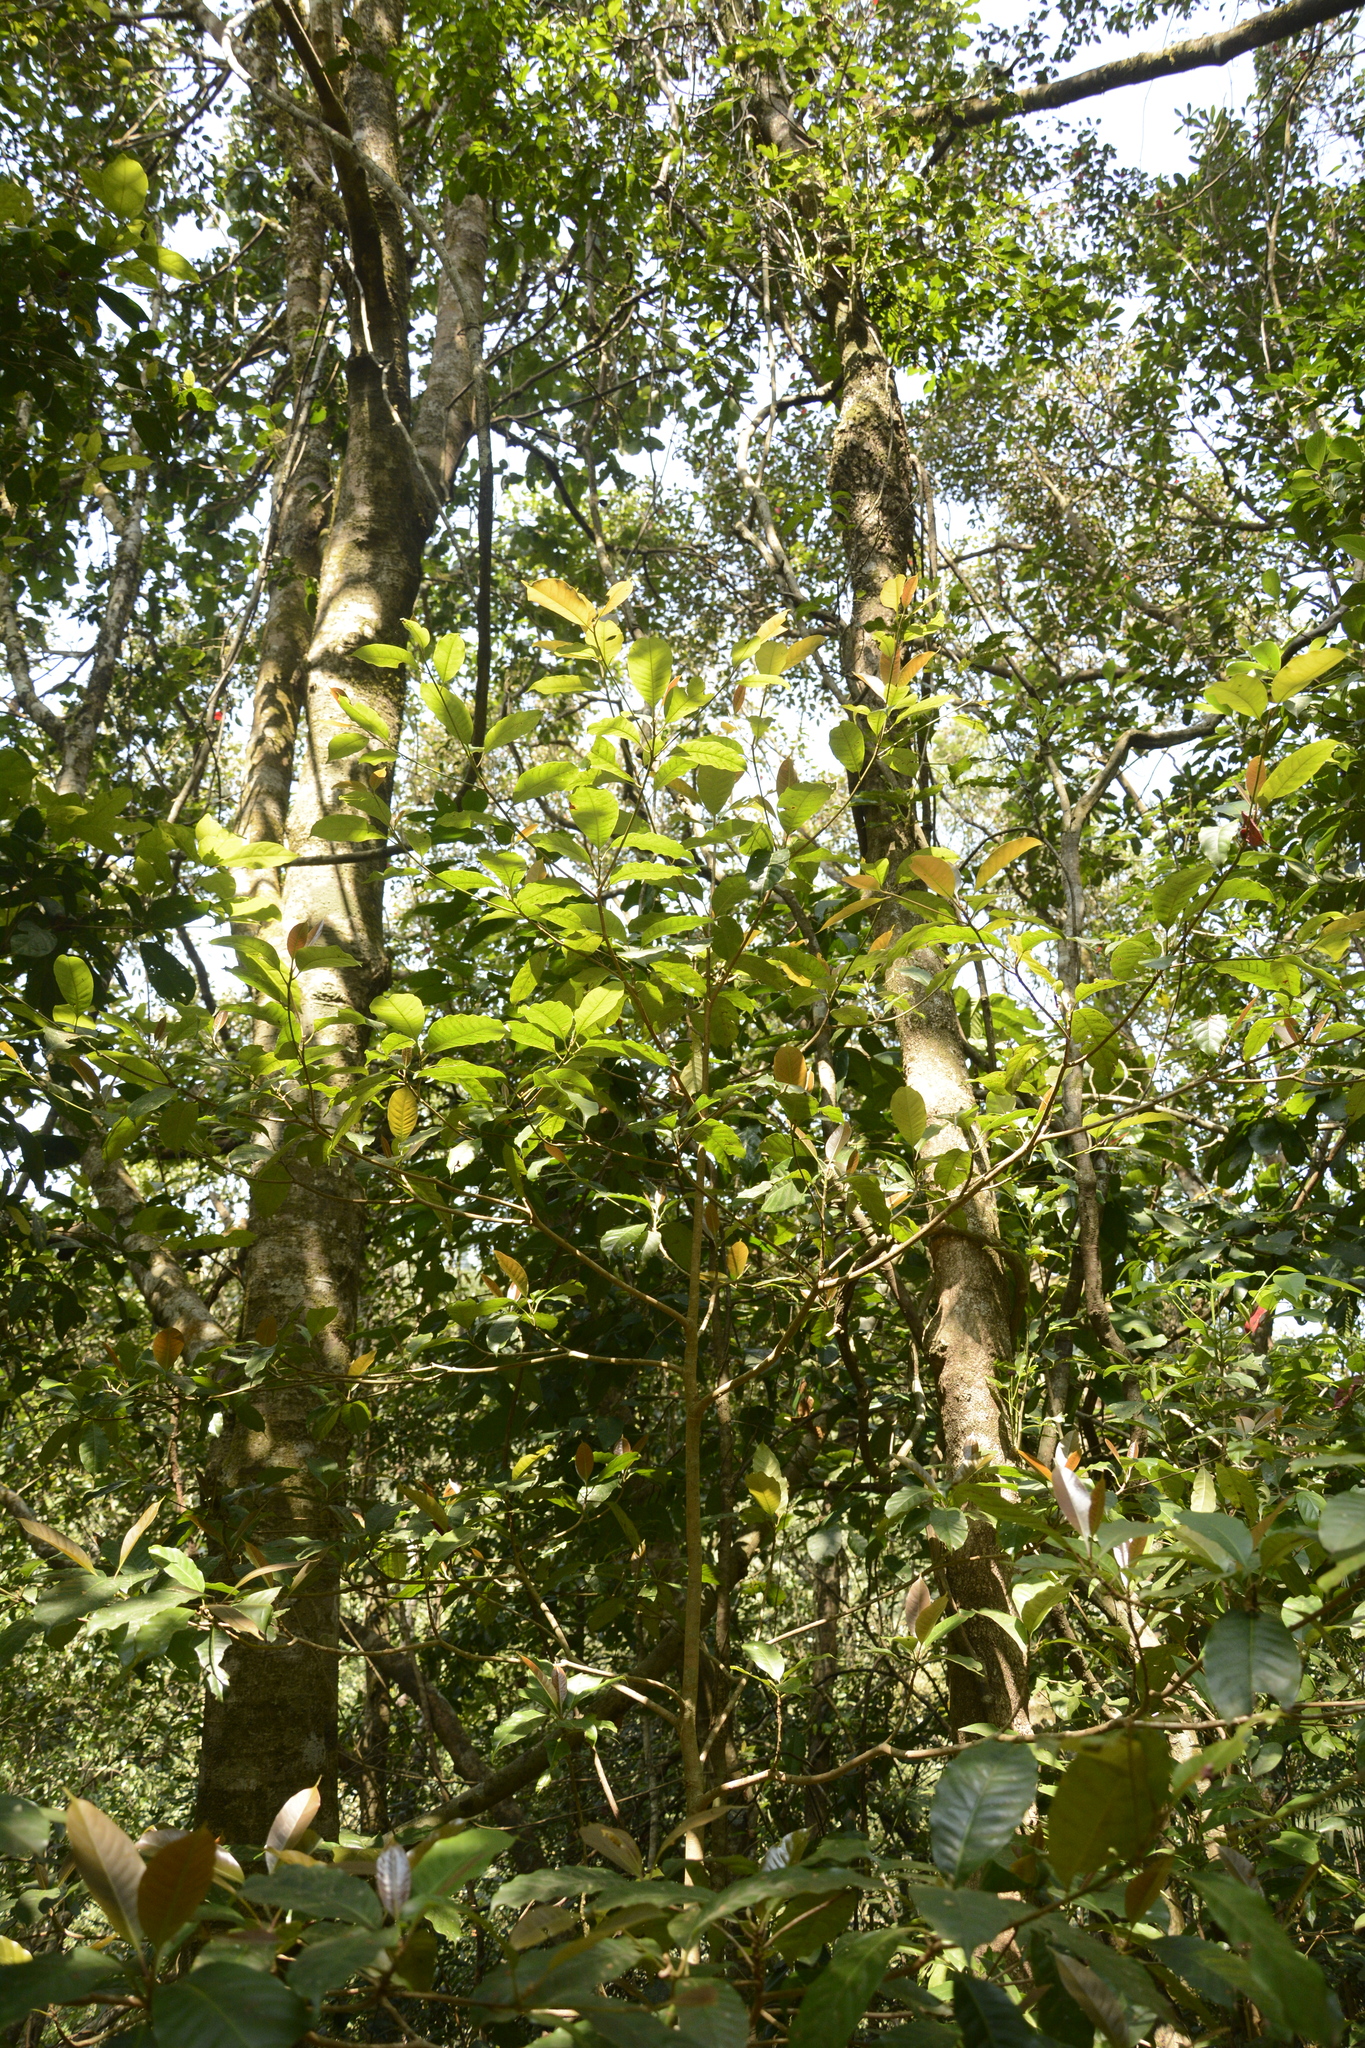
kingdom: Plantae
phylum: Tracheophyta
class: Magnoliopsida
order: Ericales
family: Sapotaceae
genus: Palaquium
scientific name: Palaquium ellipticum
